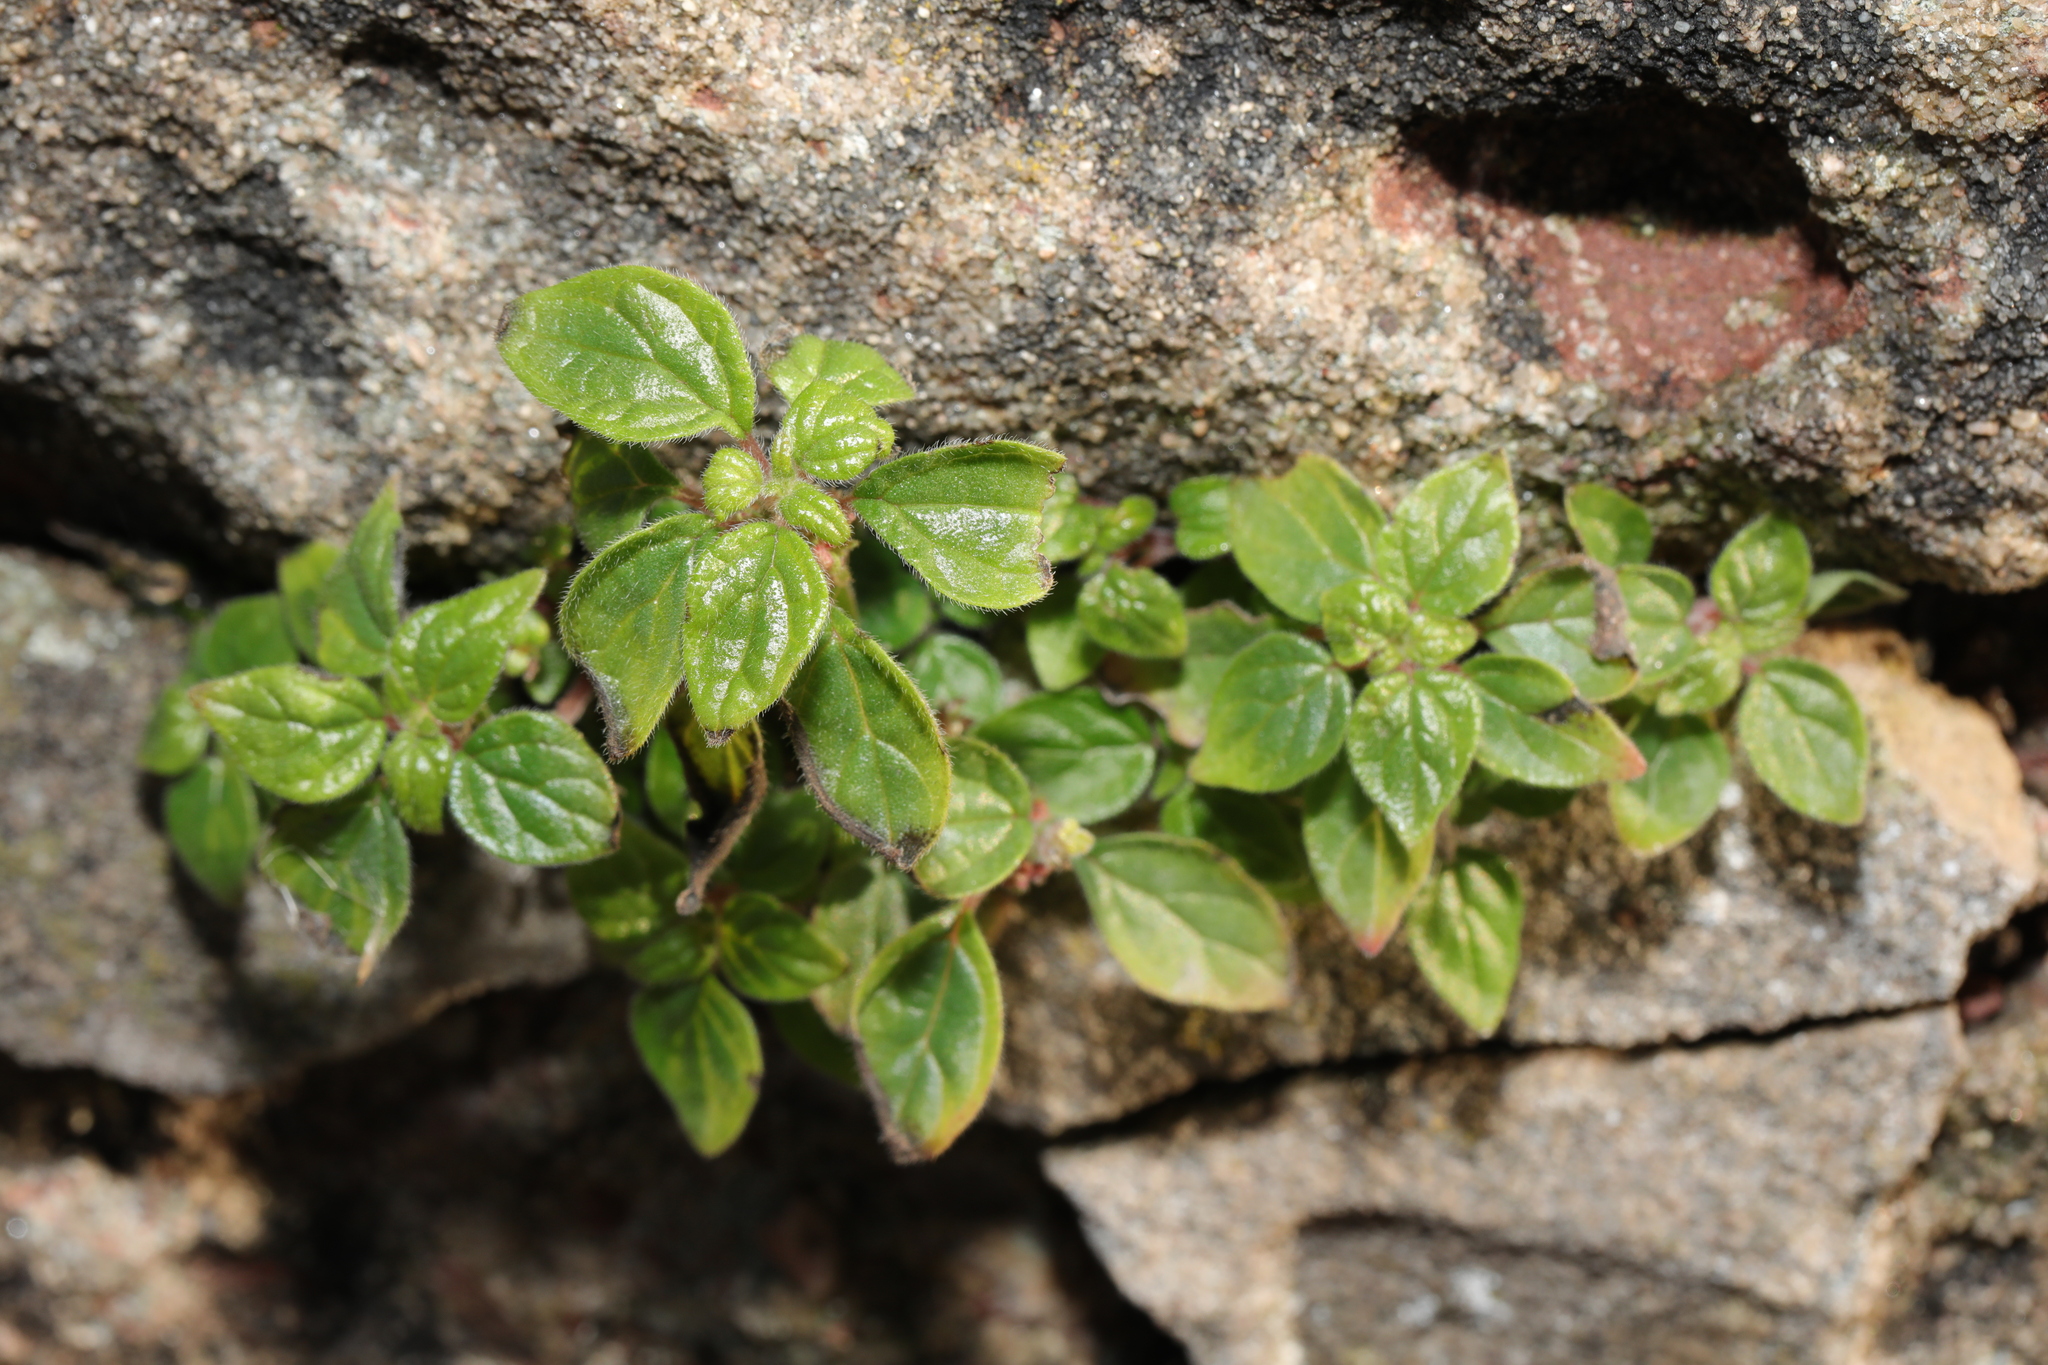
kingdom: Plantae
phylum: Tracheophyta
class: Magnoliopsida
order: Rosales
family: Urticaceae
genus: Parietaria
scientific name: Parietaria judaica
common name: Pellitory-of-the-wall
